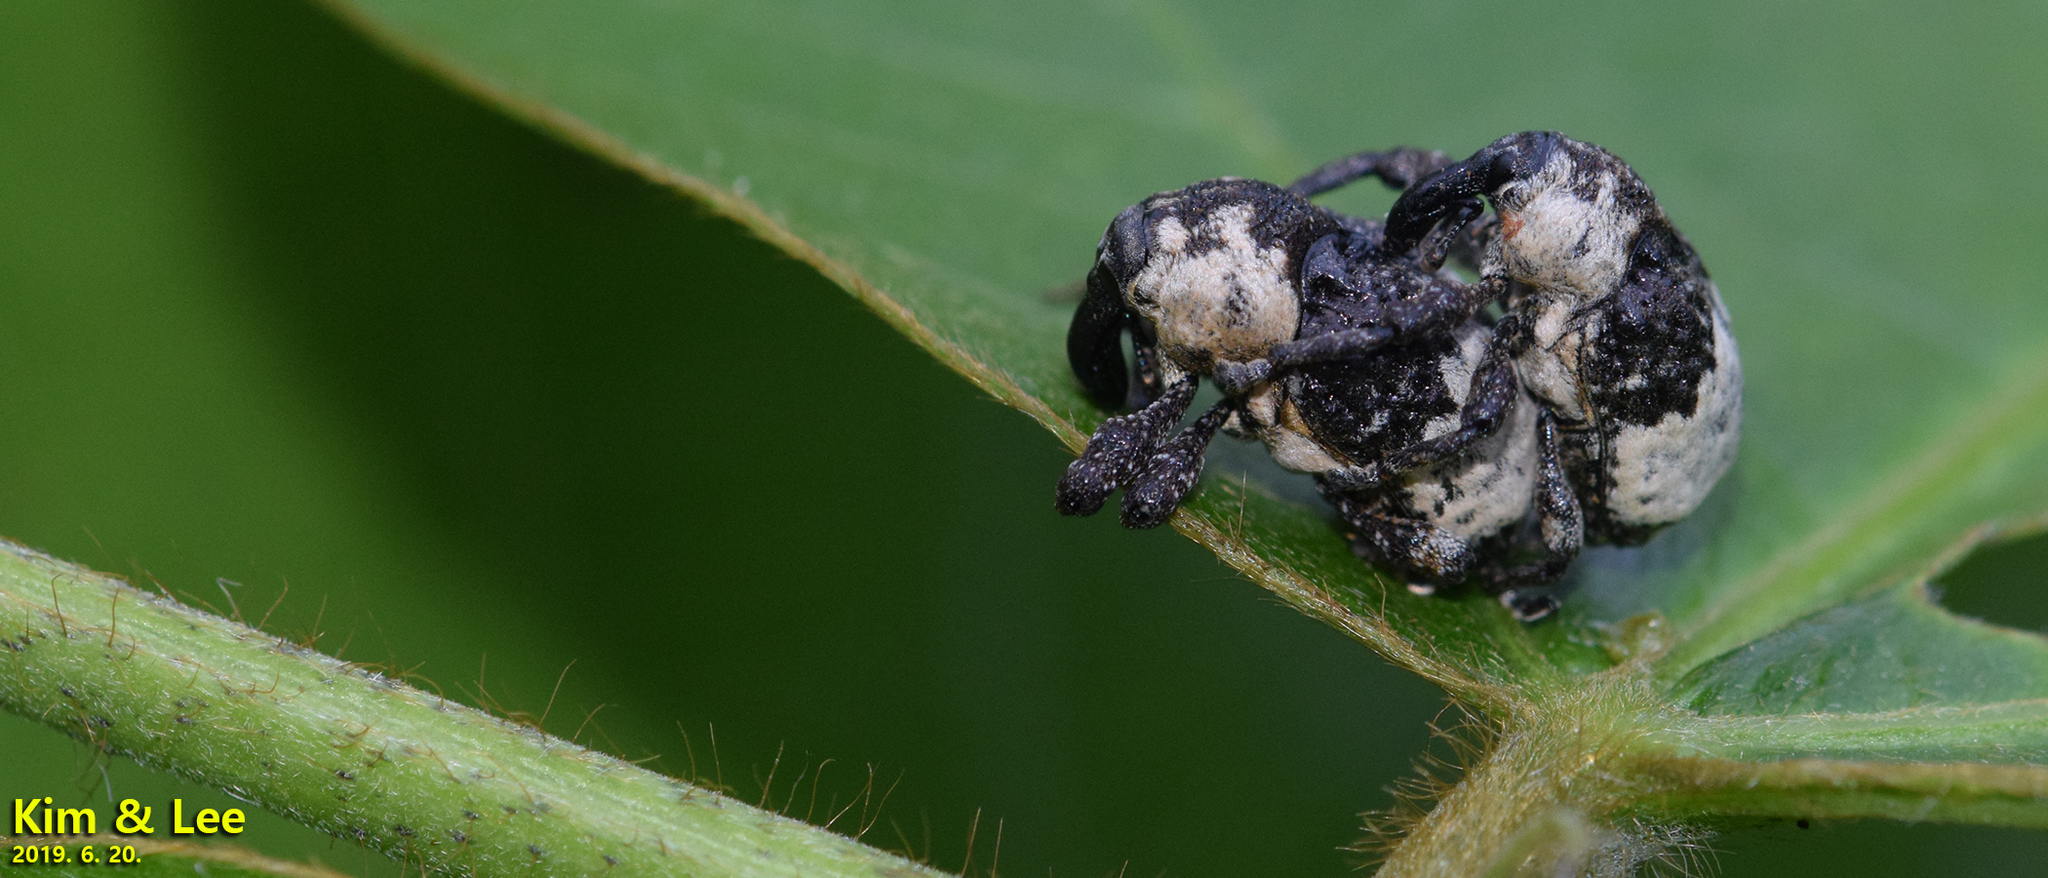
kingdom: Animalia
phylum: Arthropoda
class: Insecta
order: Coleoptera
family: Curculionidae
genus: Alcides
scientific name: Alcides trifidus
